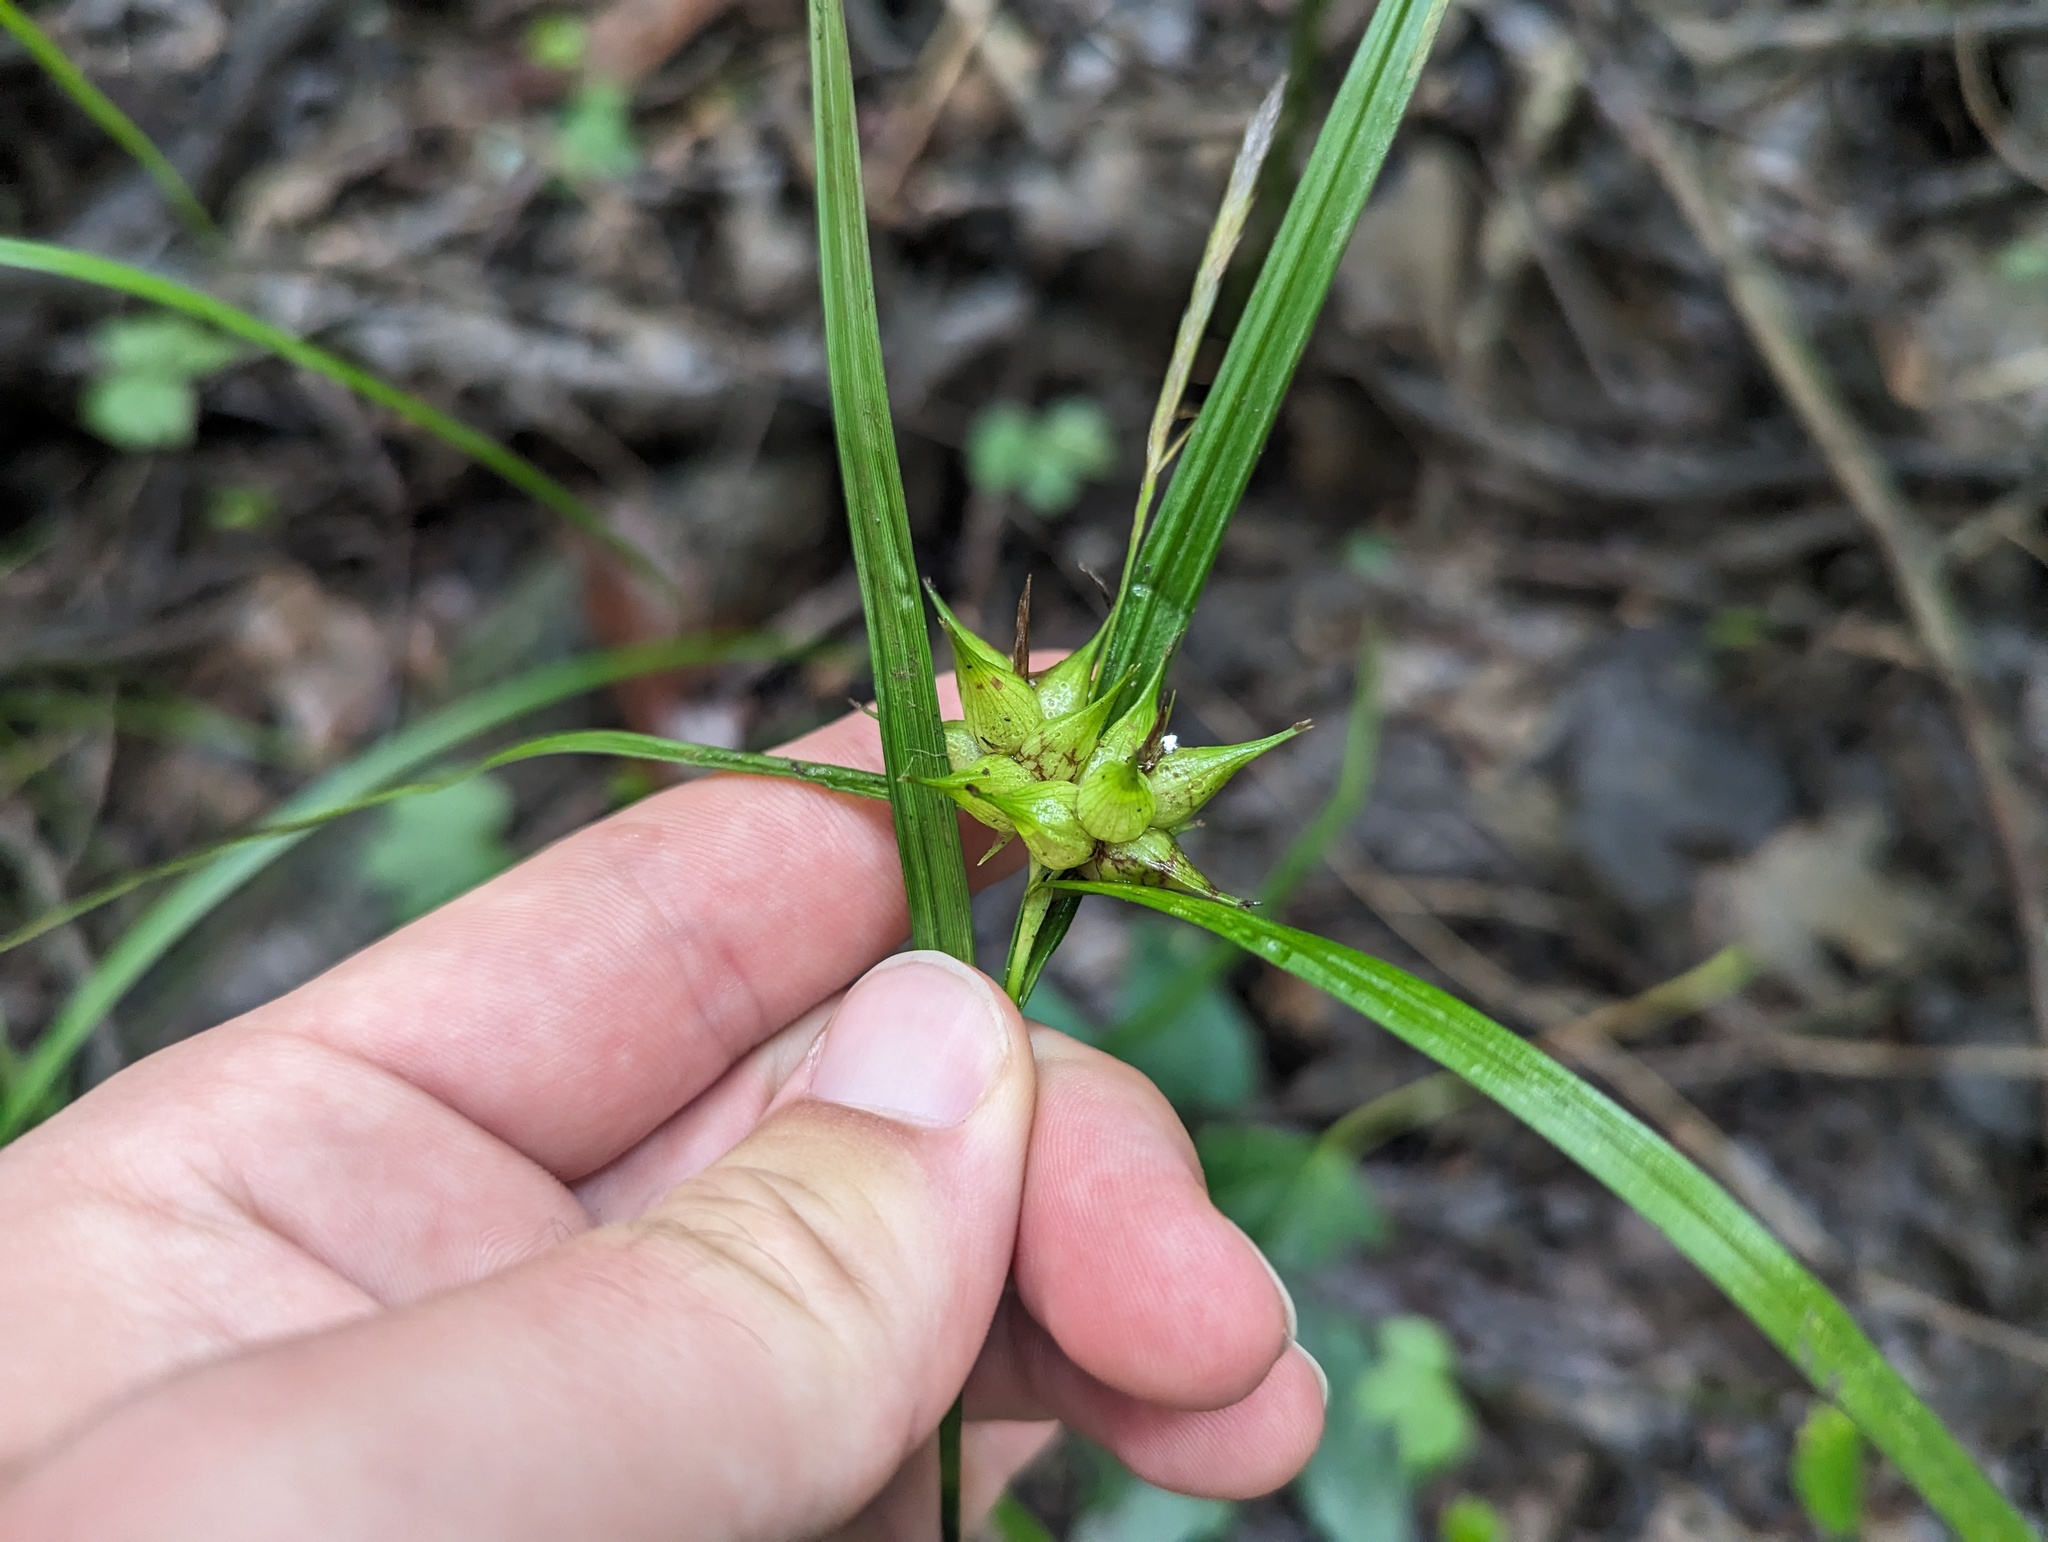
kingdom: Plantae
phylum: Tracheophyta
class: Liliopsida
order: Poales
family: Cyperaceae
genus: Carex
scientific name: Carex intumescens
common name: Greater bladder sedge
